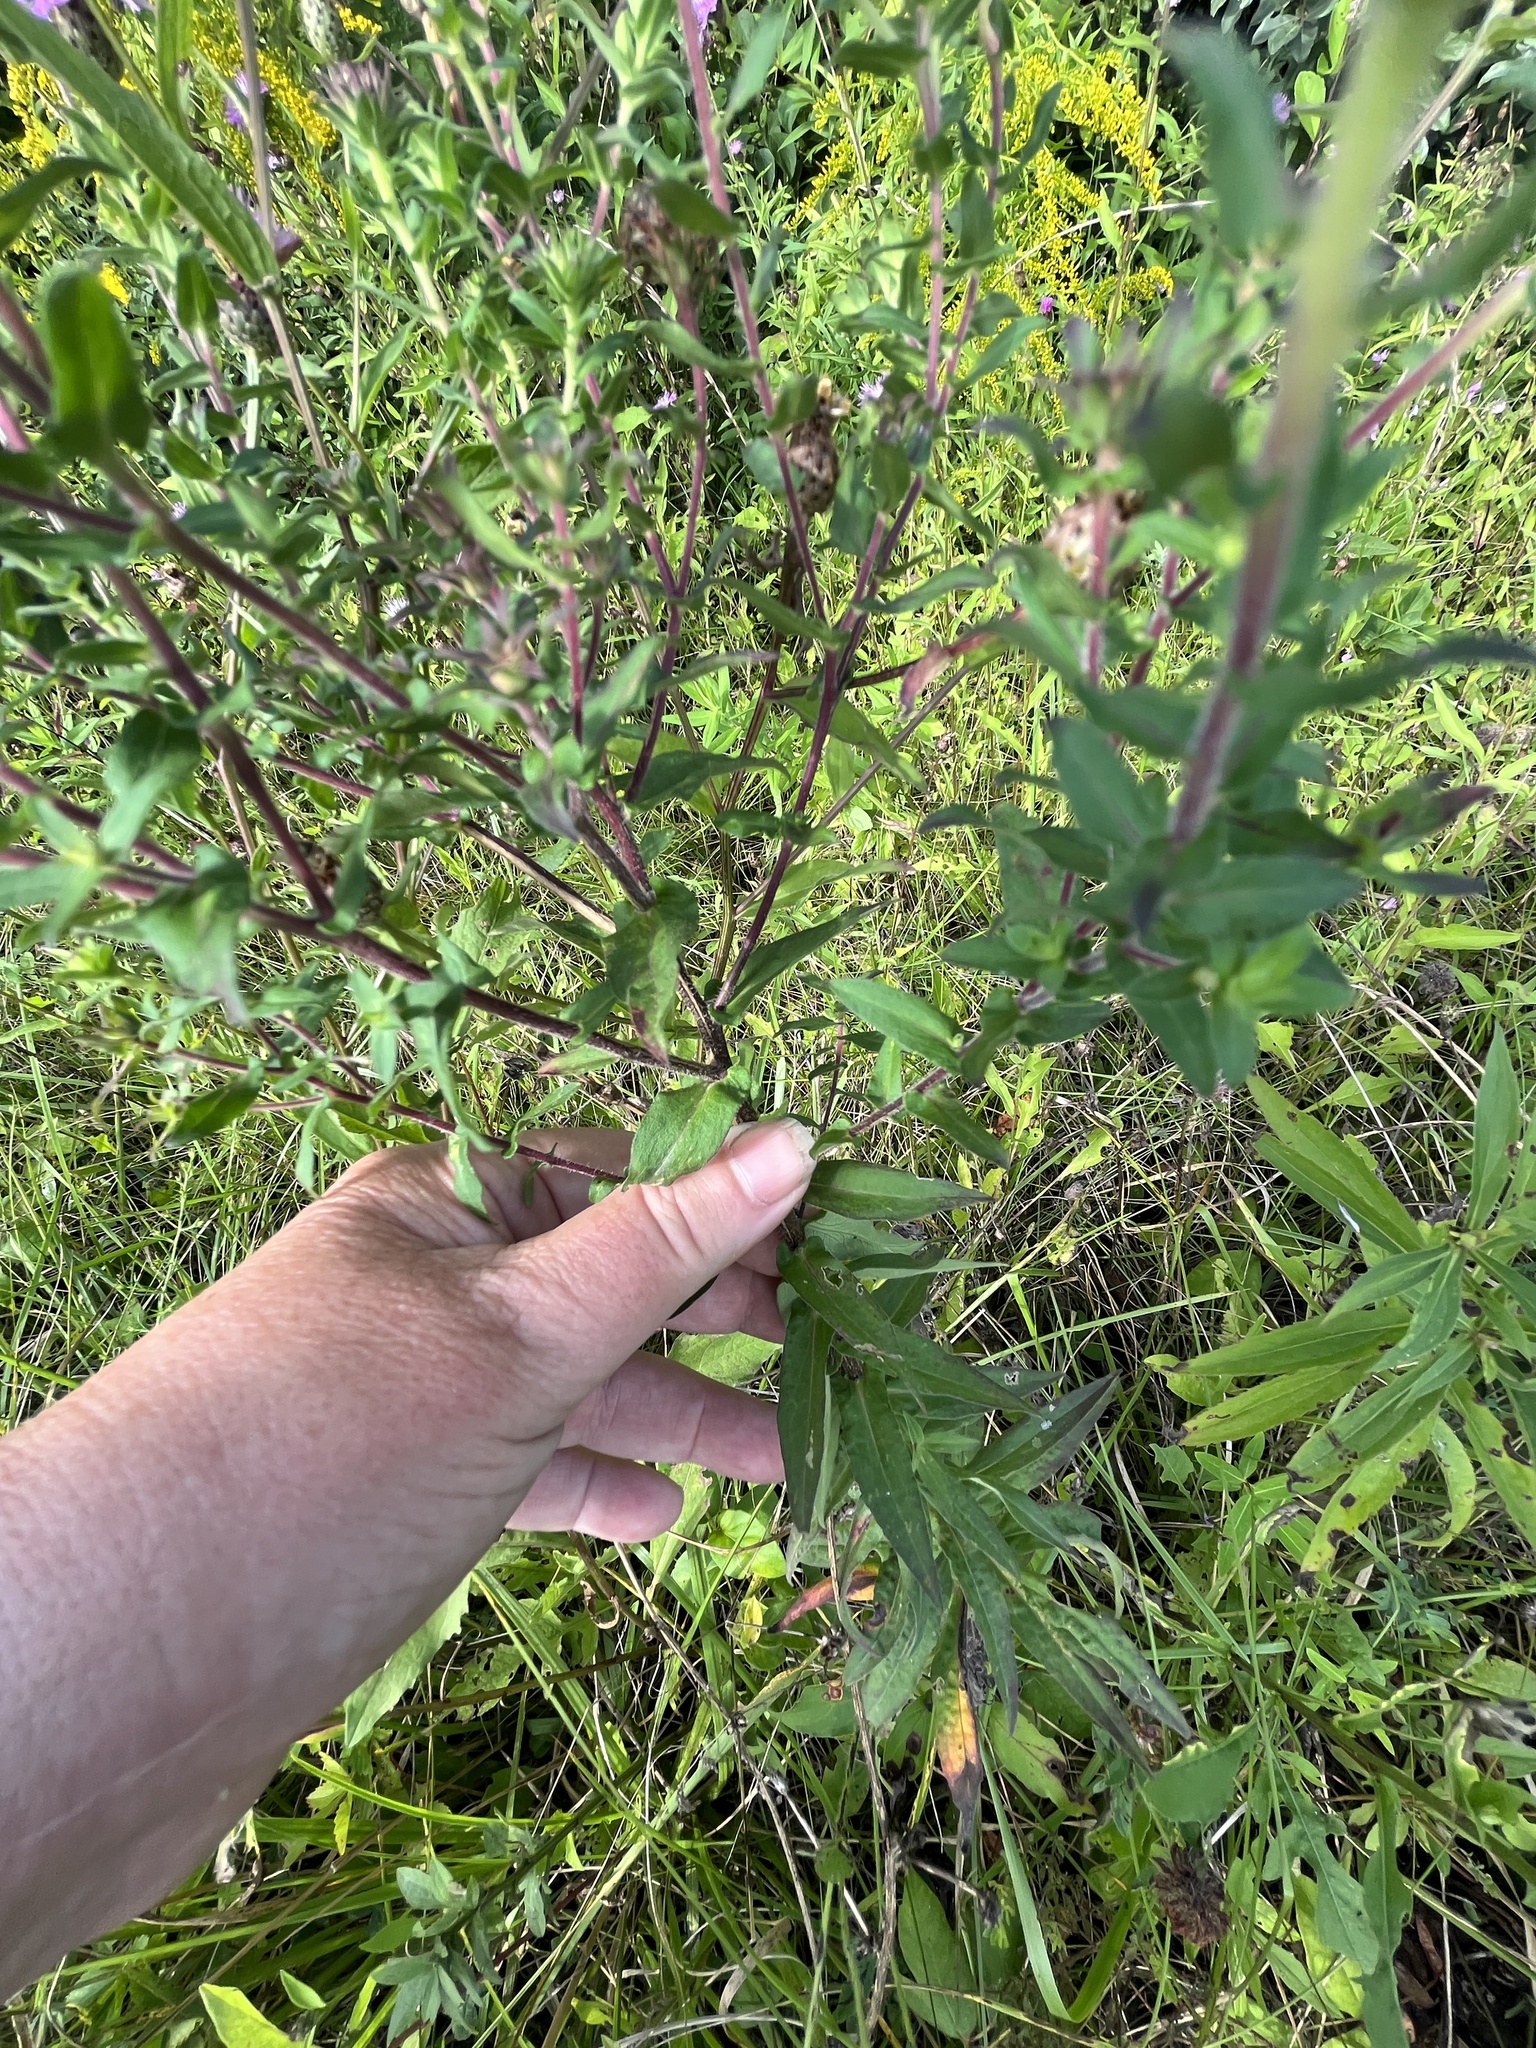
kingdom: Plantae
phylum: Tracheophyta
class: Magnoliopsida
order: Asterales
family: Asteraceae
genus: Symphyotrichum
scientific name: Symphyotrichum novae-angliae
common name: Michaelmas daisy
